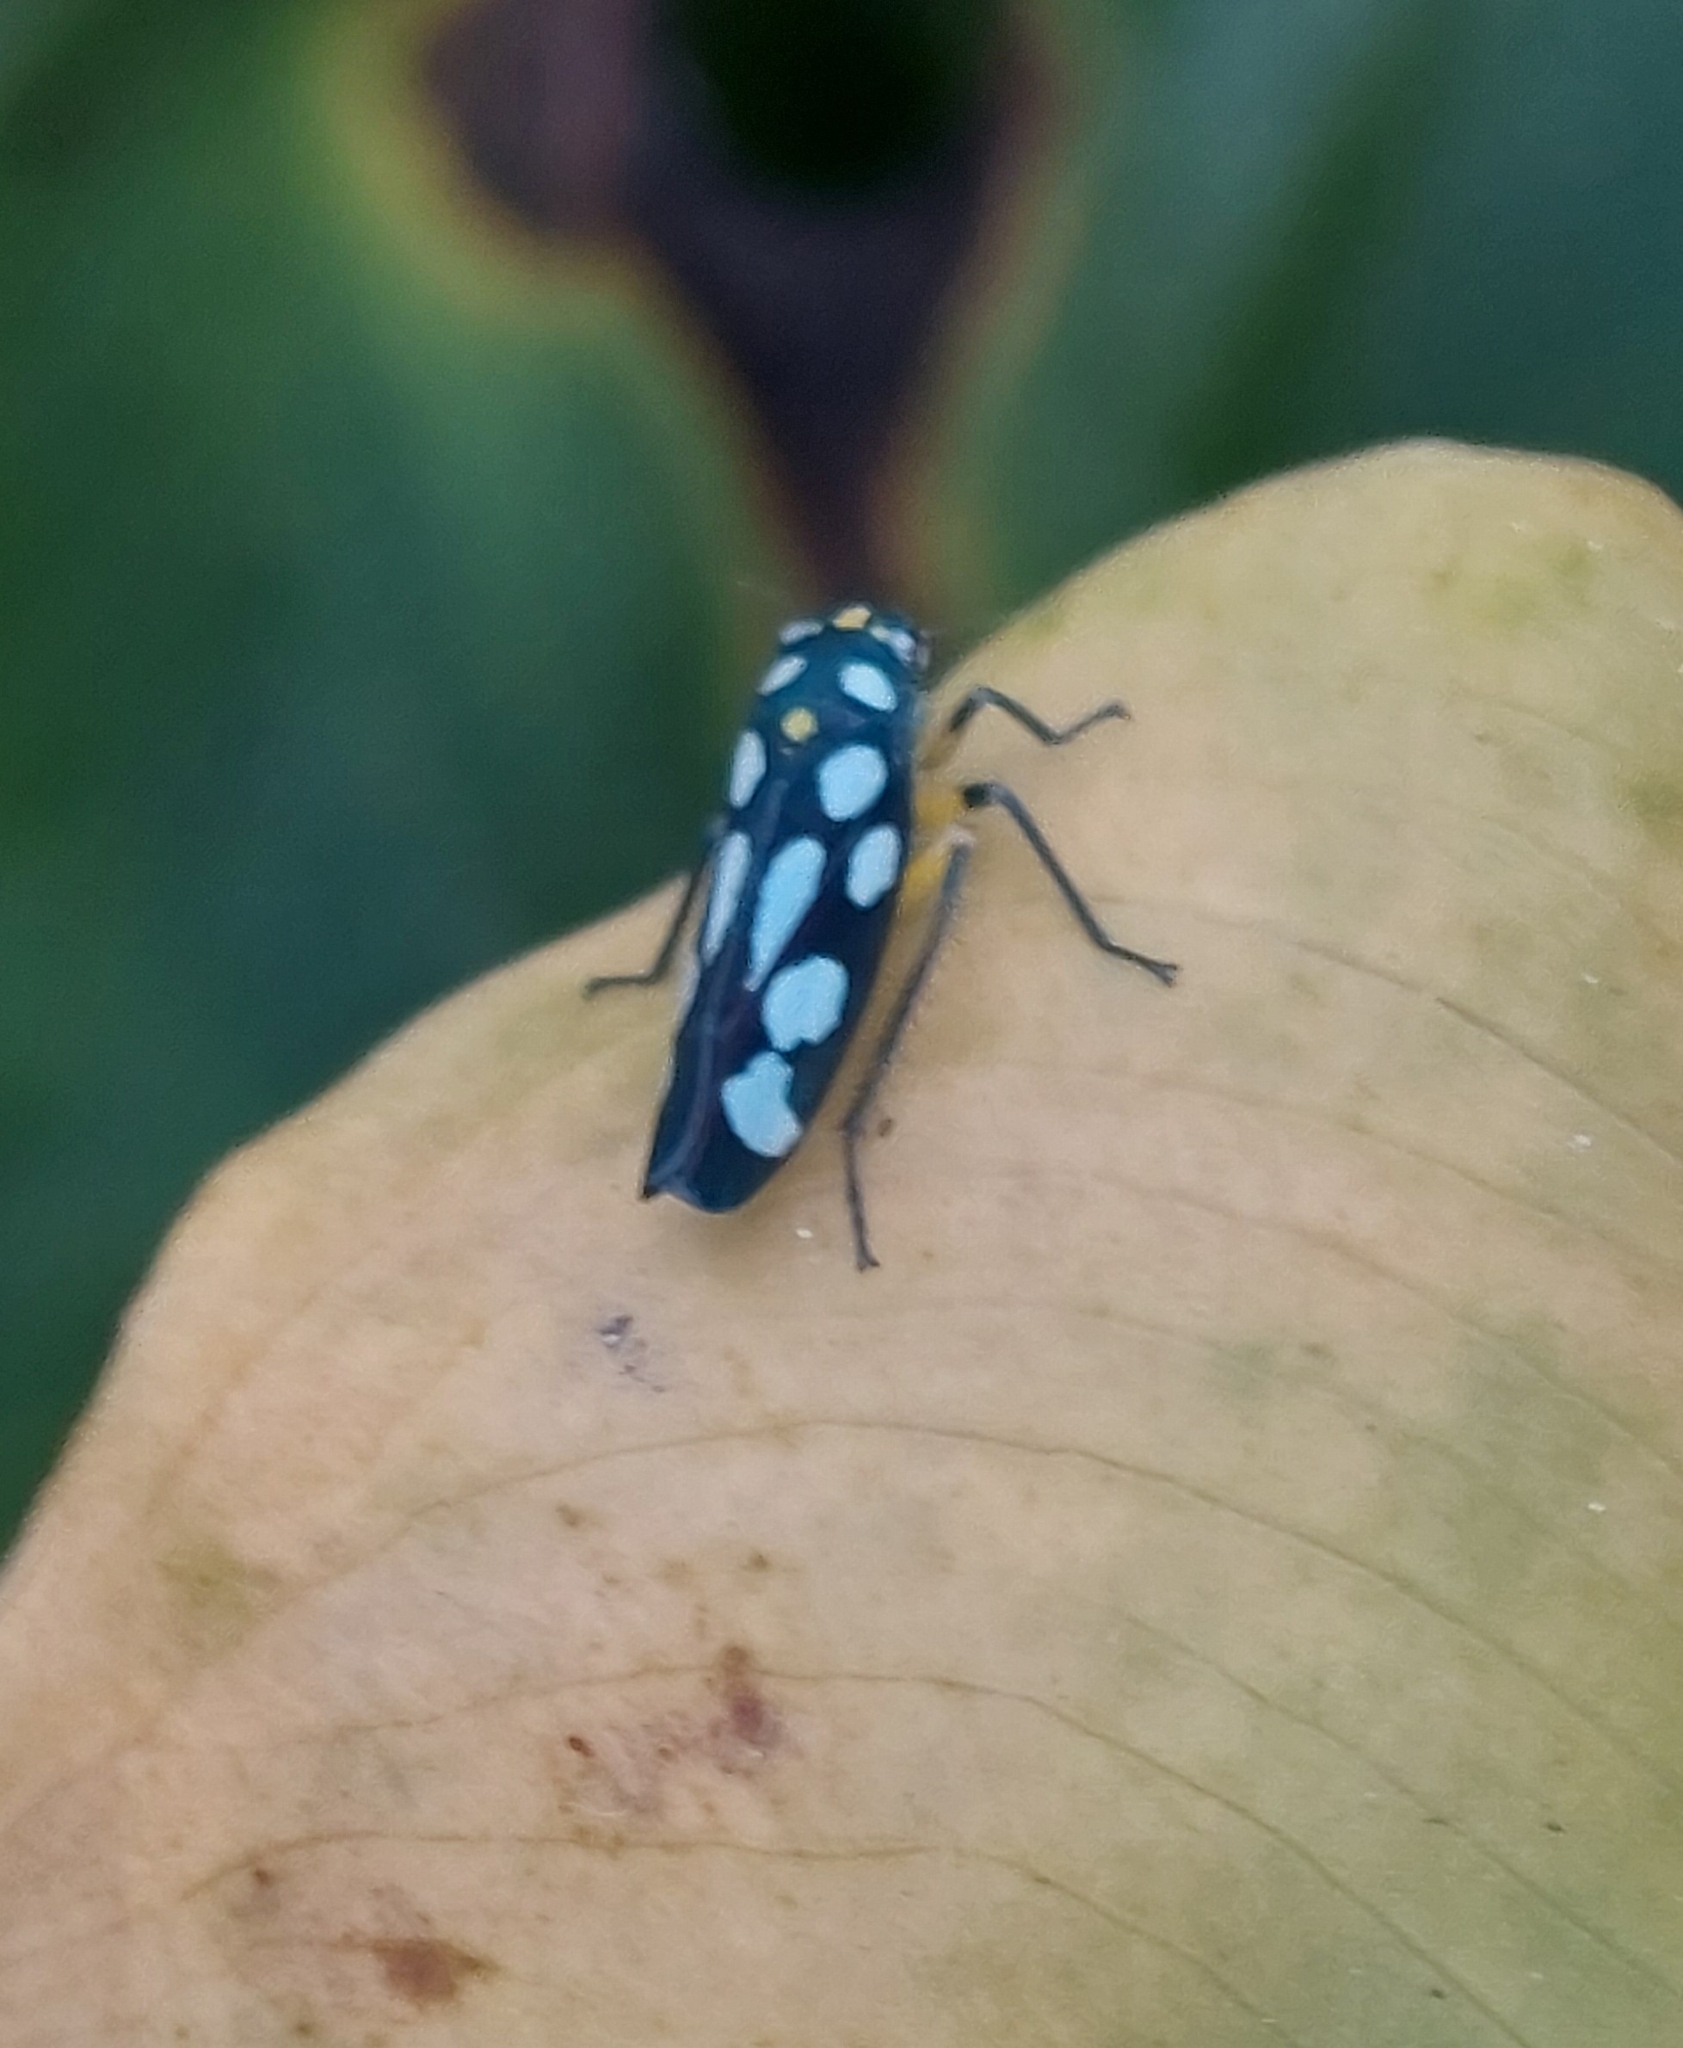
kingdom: Animalia
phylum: Arthropoda
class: Insecta
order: Hemiptera
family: Cicadellidae
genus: Stehlikiana
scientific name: Stehlikiana crassa
